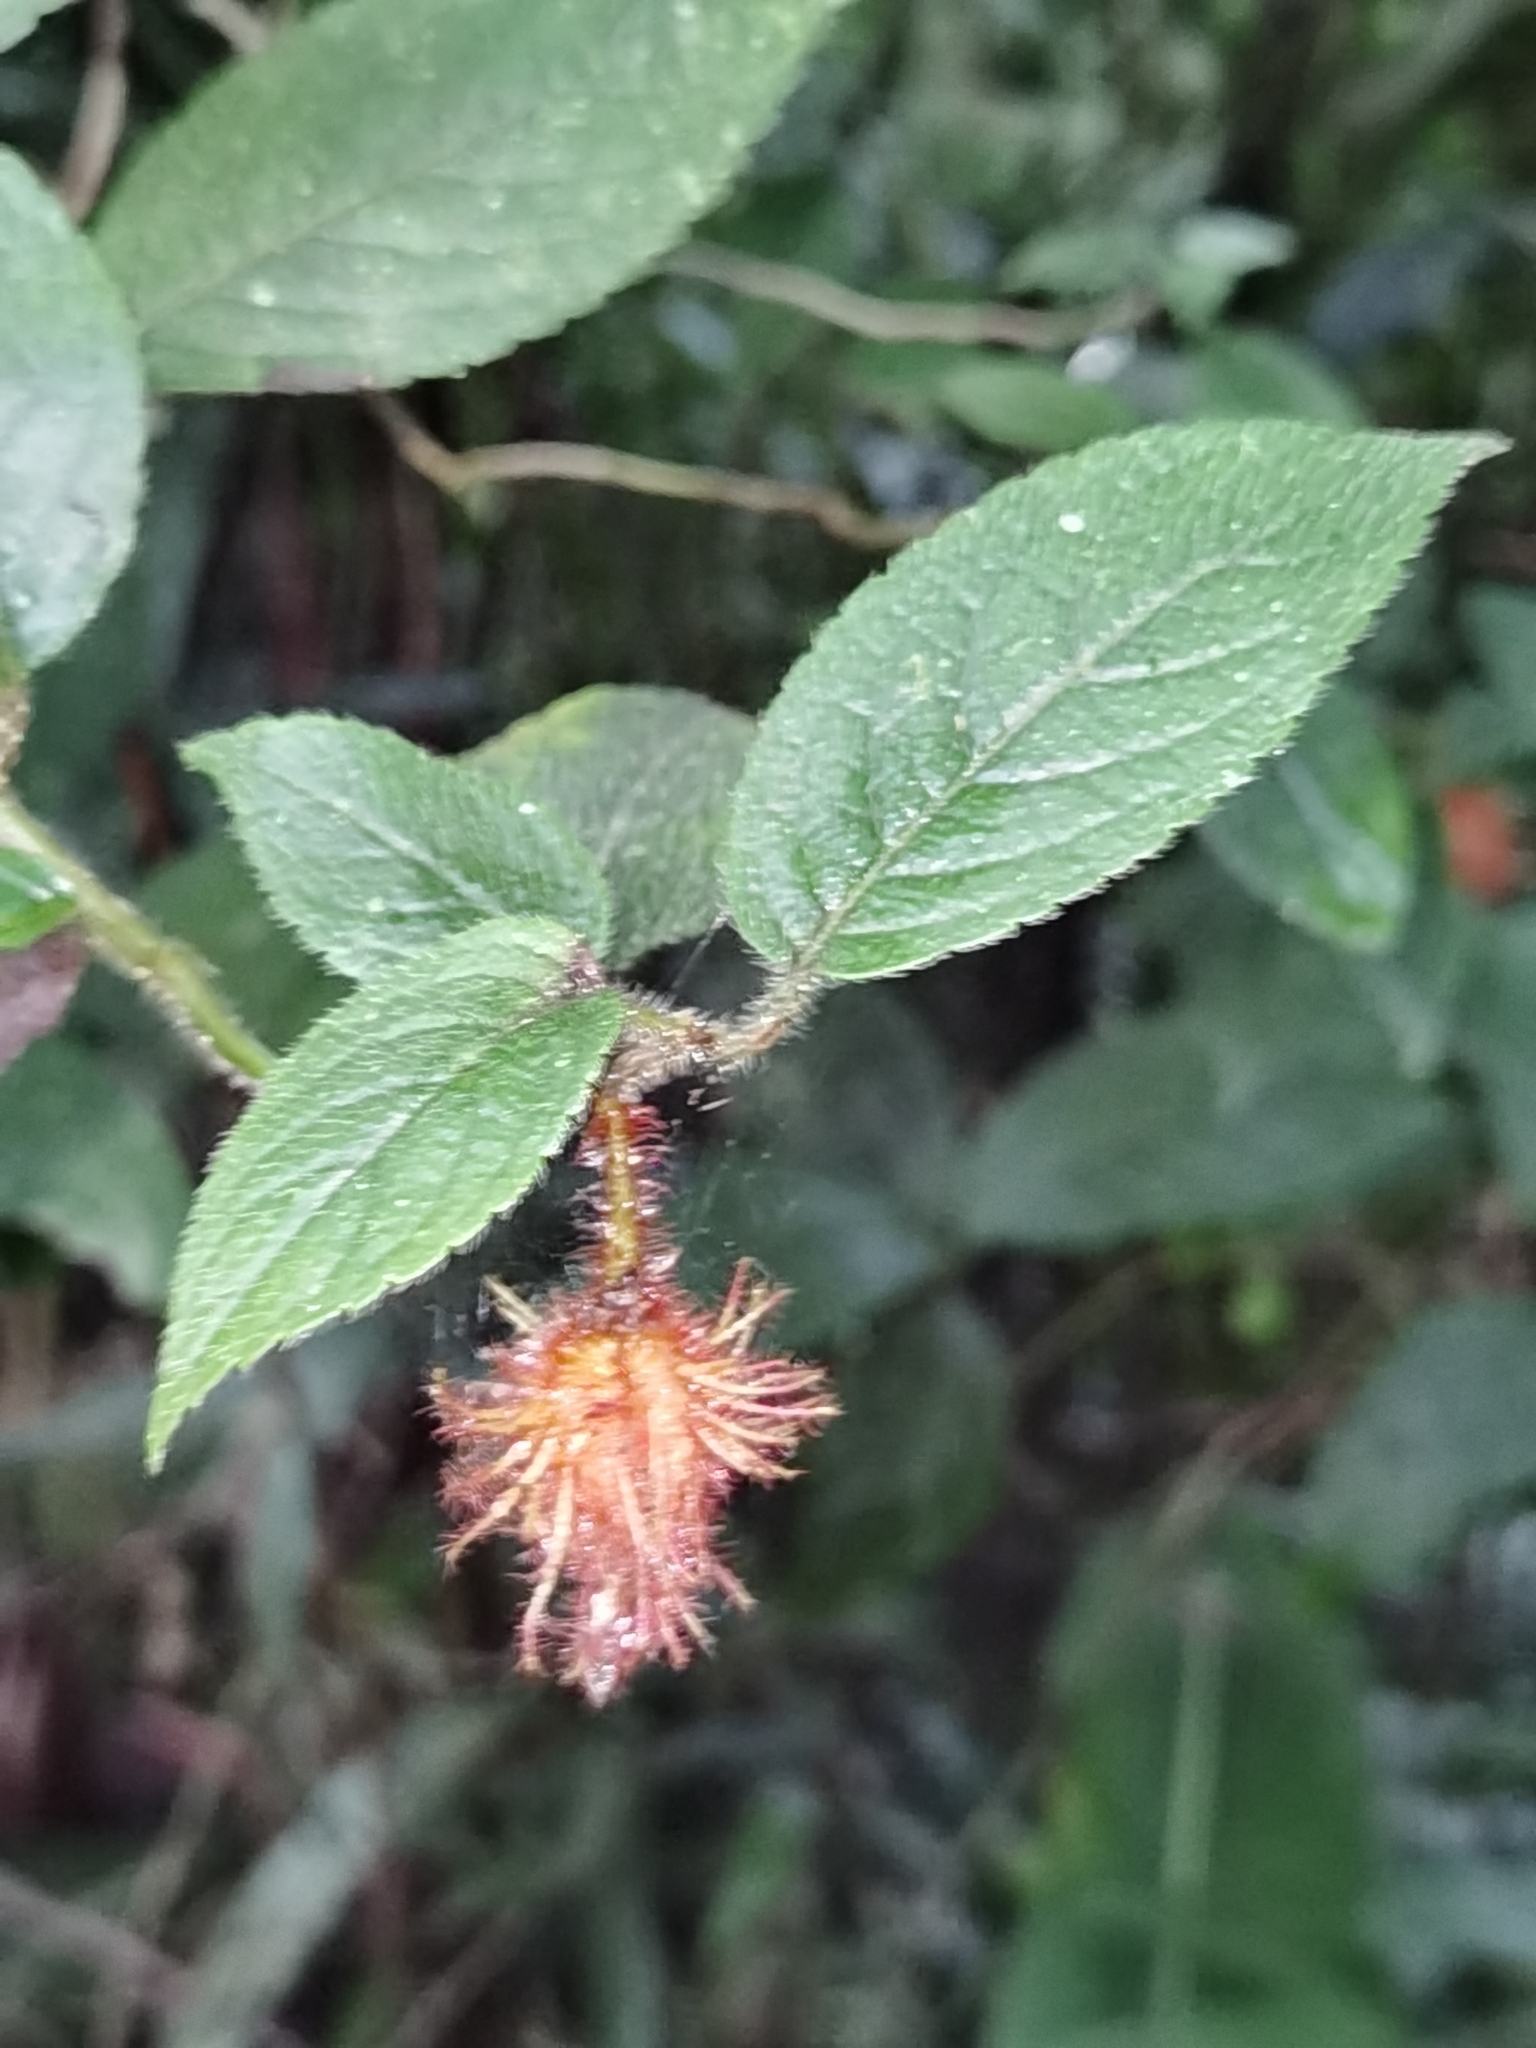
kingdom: Plantae
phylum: Tracheophyta
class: Magnoliopsida
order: Lamiales
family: Gesneriaceae
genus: Alloplectus
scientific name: Alloplectus weirii
